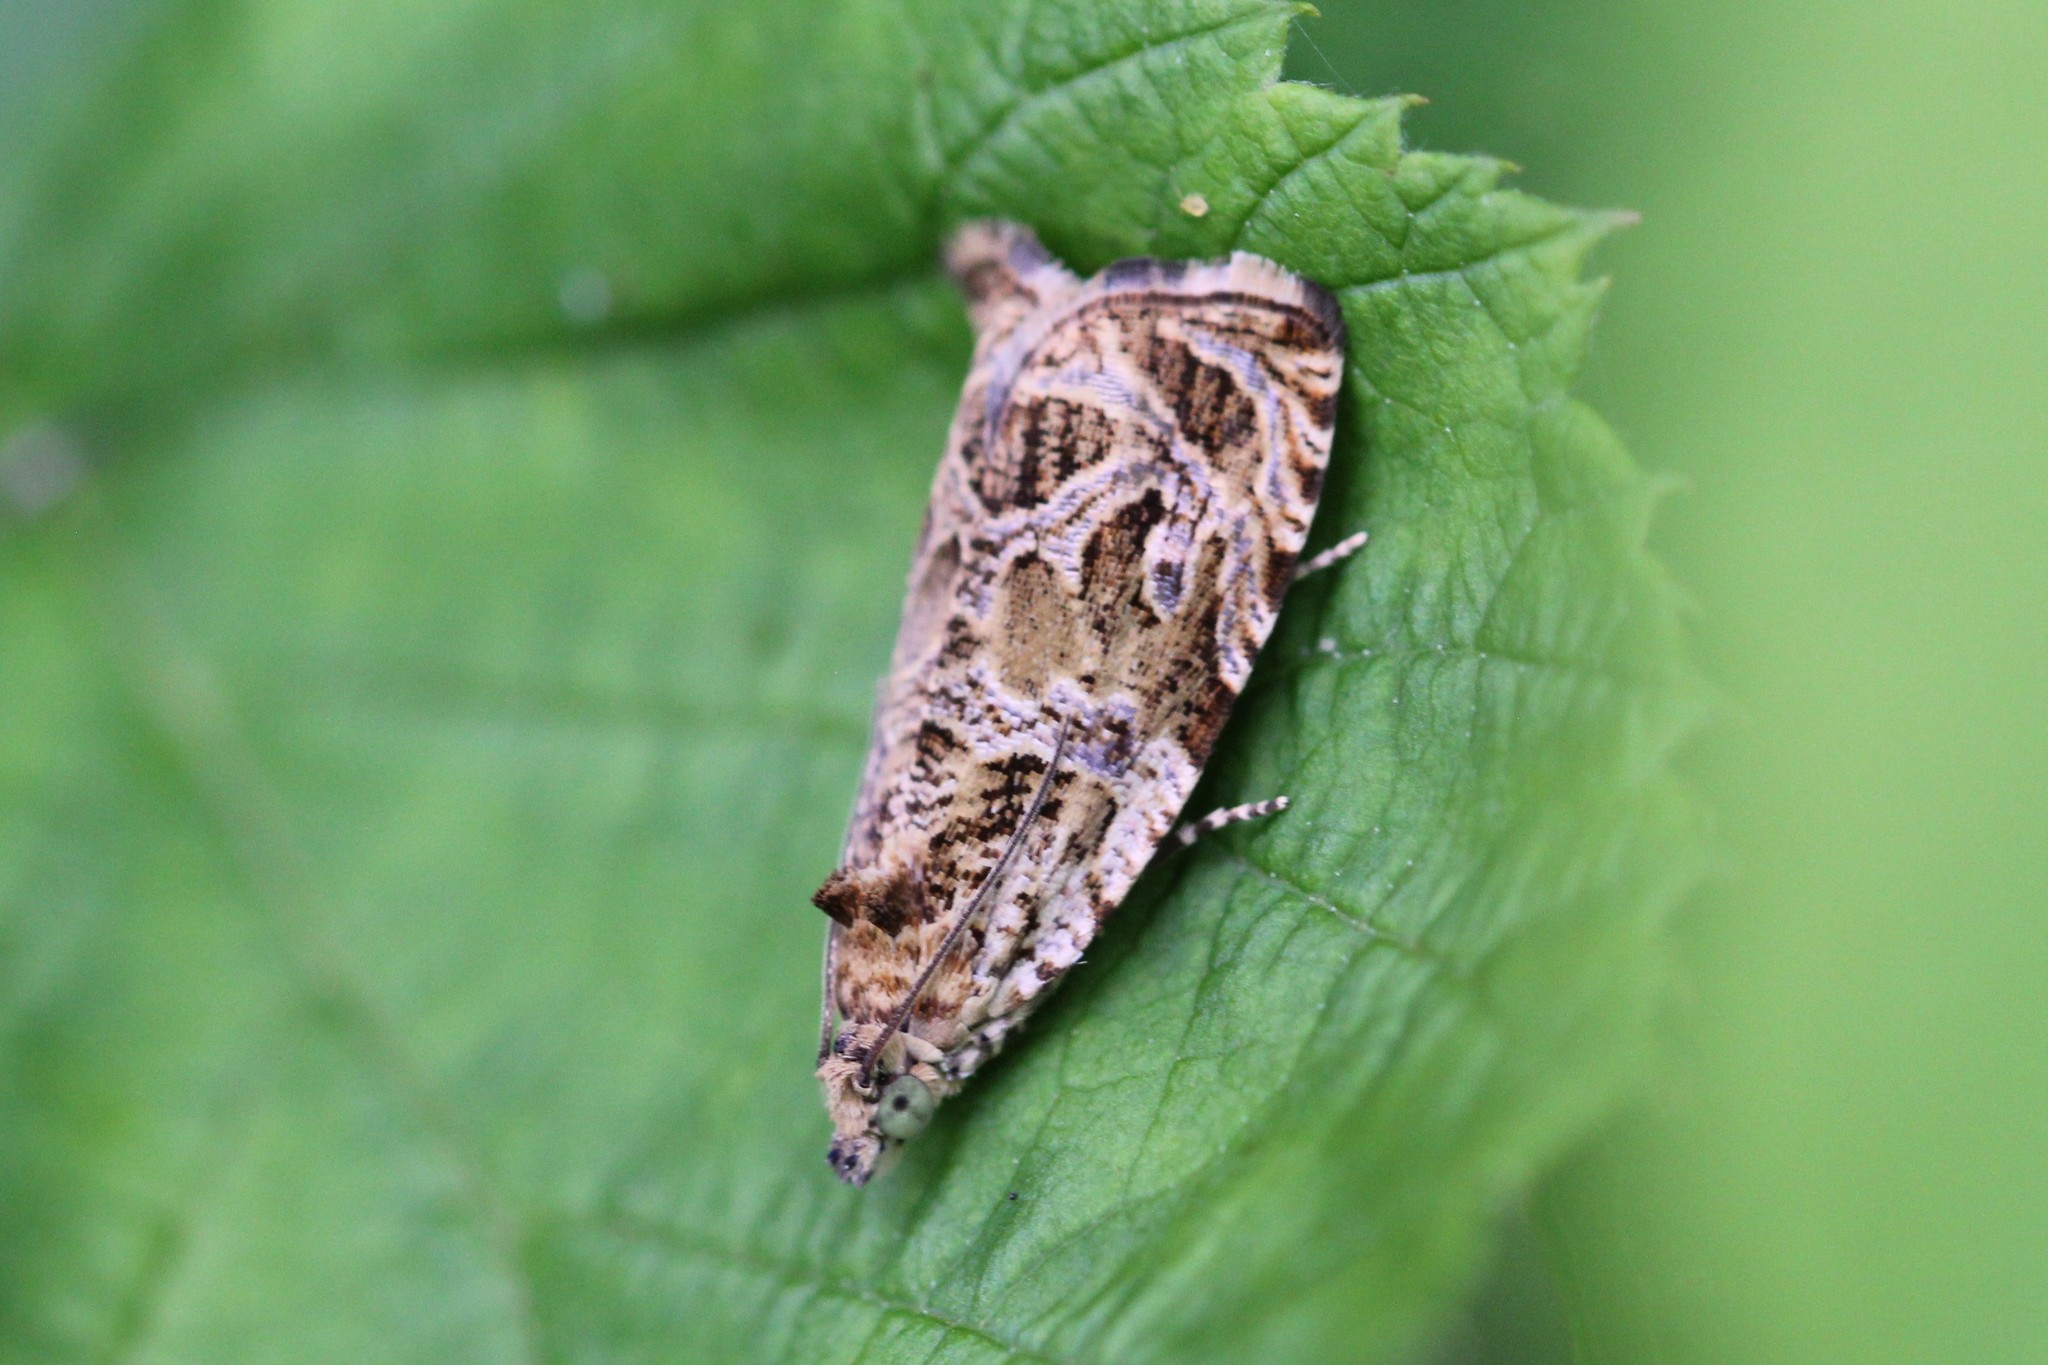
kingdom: Animalia
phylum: Arthropoda
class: Insecta
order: Lepidoptera
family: Tortricidae
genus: Olethreutes
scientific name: Olethreutes permundana
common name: Raspberry leafroller moth
